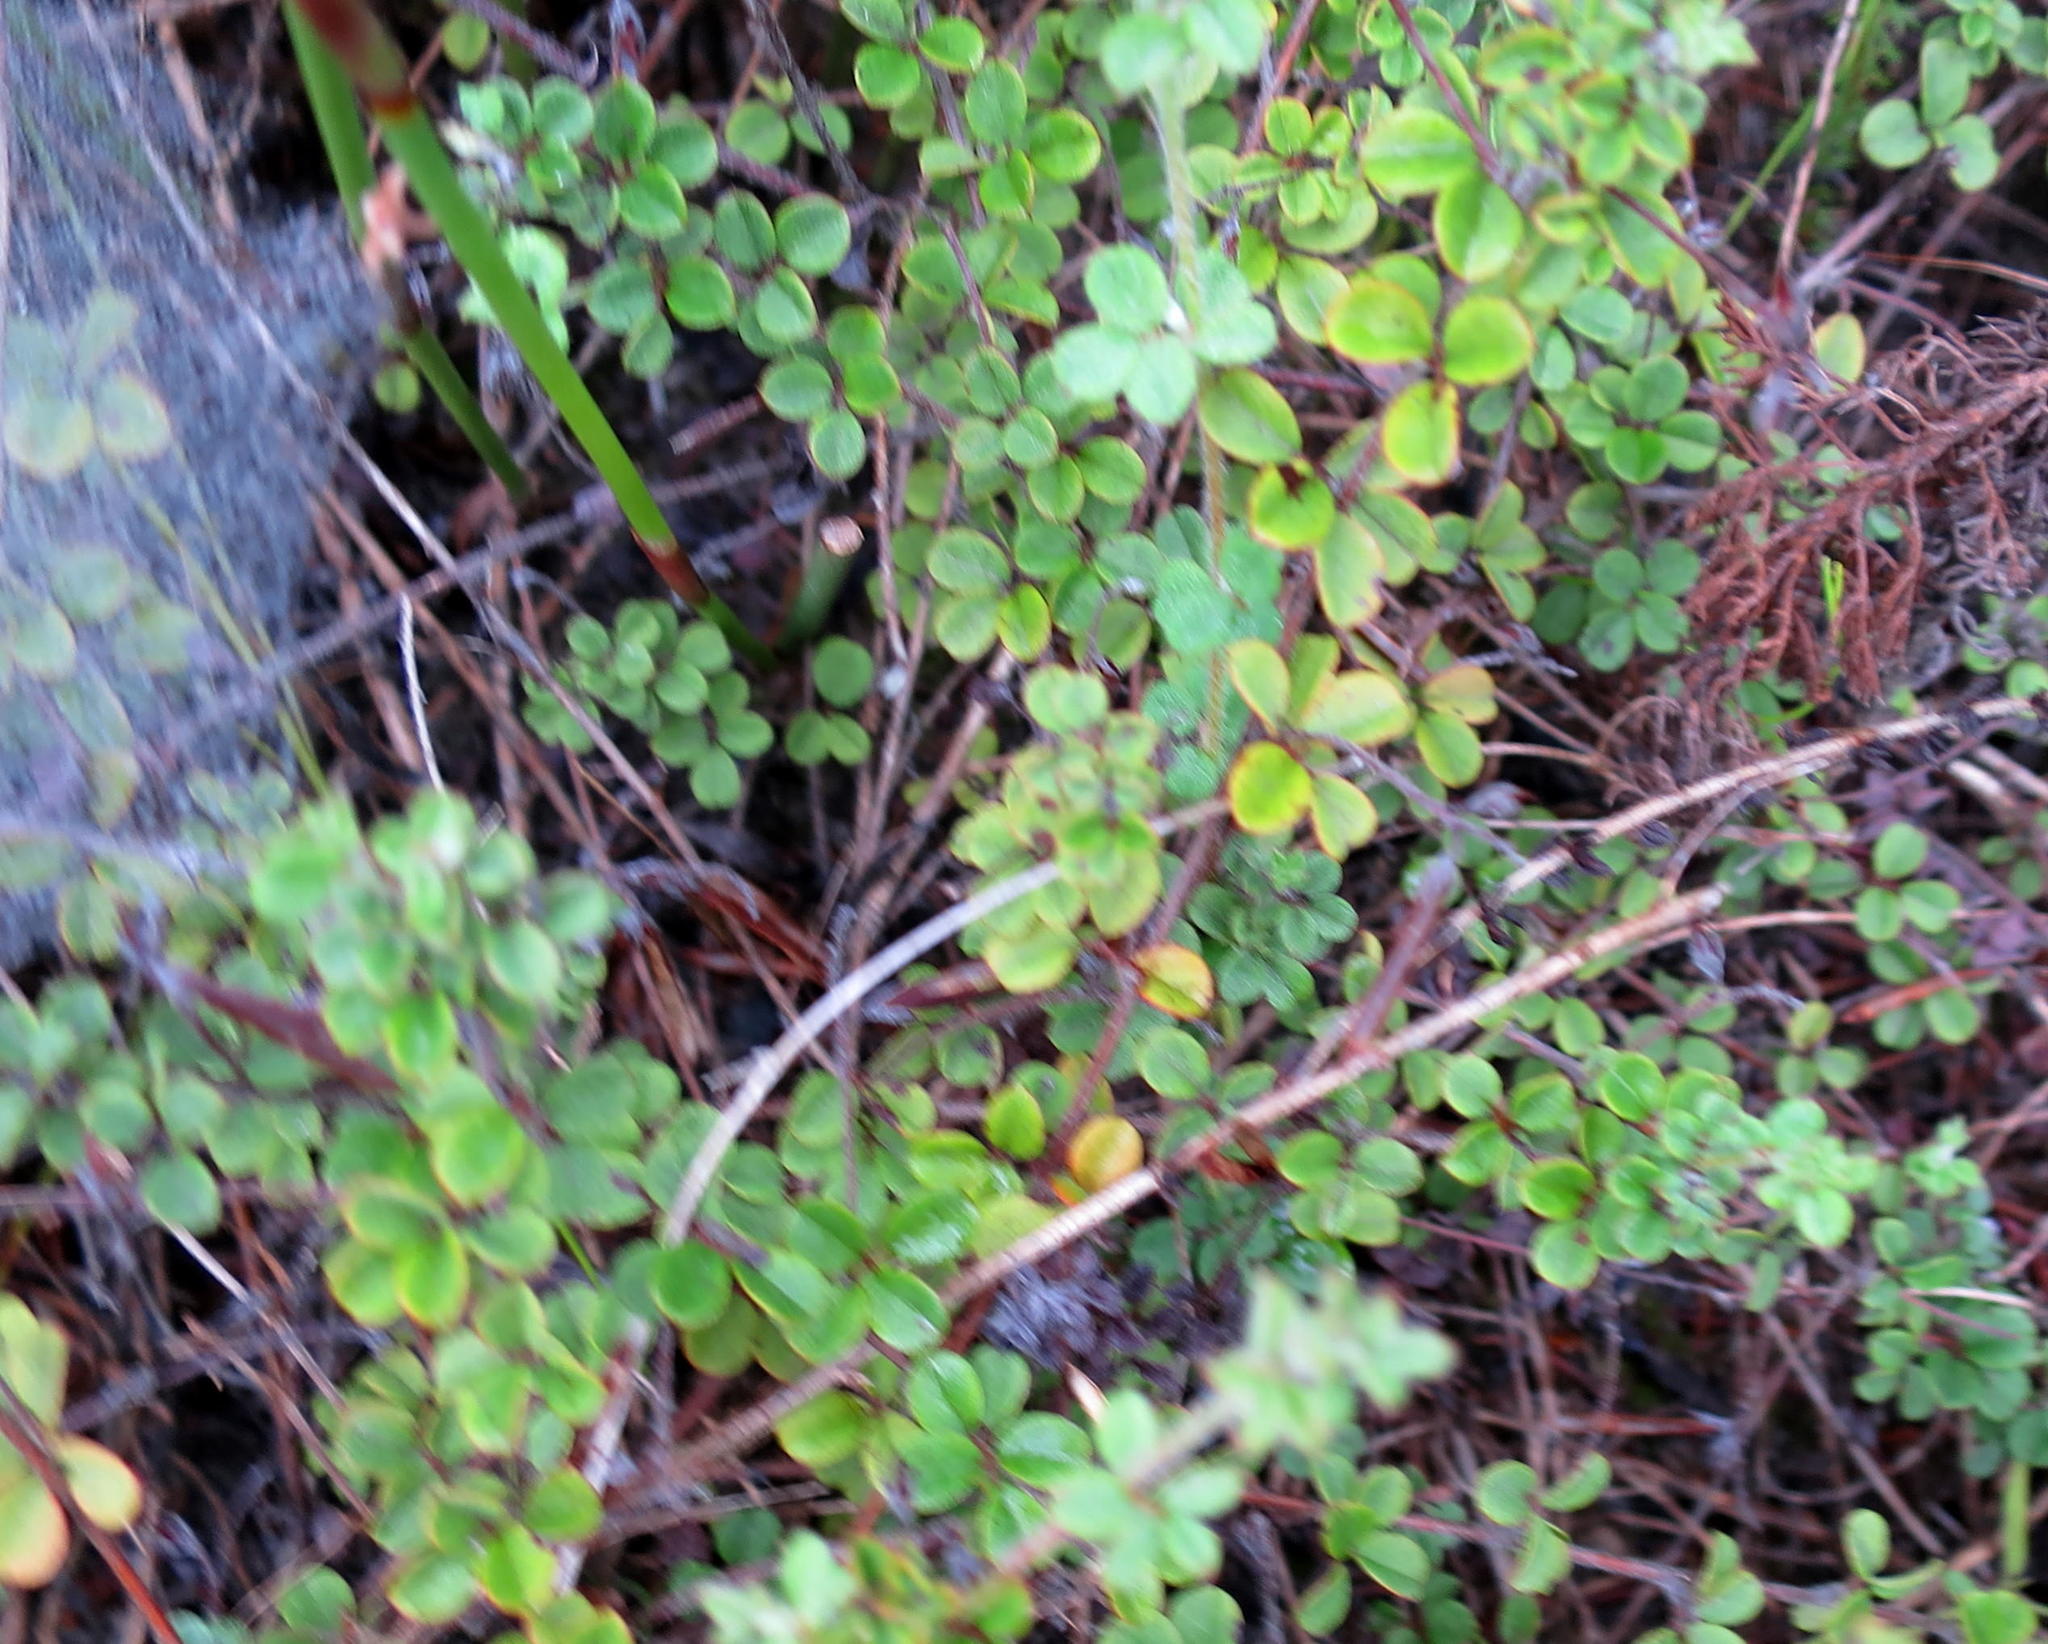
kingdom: Plantae
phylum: Tracheophyta
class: Magnoliopsida
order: Fabales
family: Fabaceae
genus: Indigofera
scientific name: Indigofera alopecuroides
